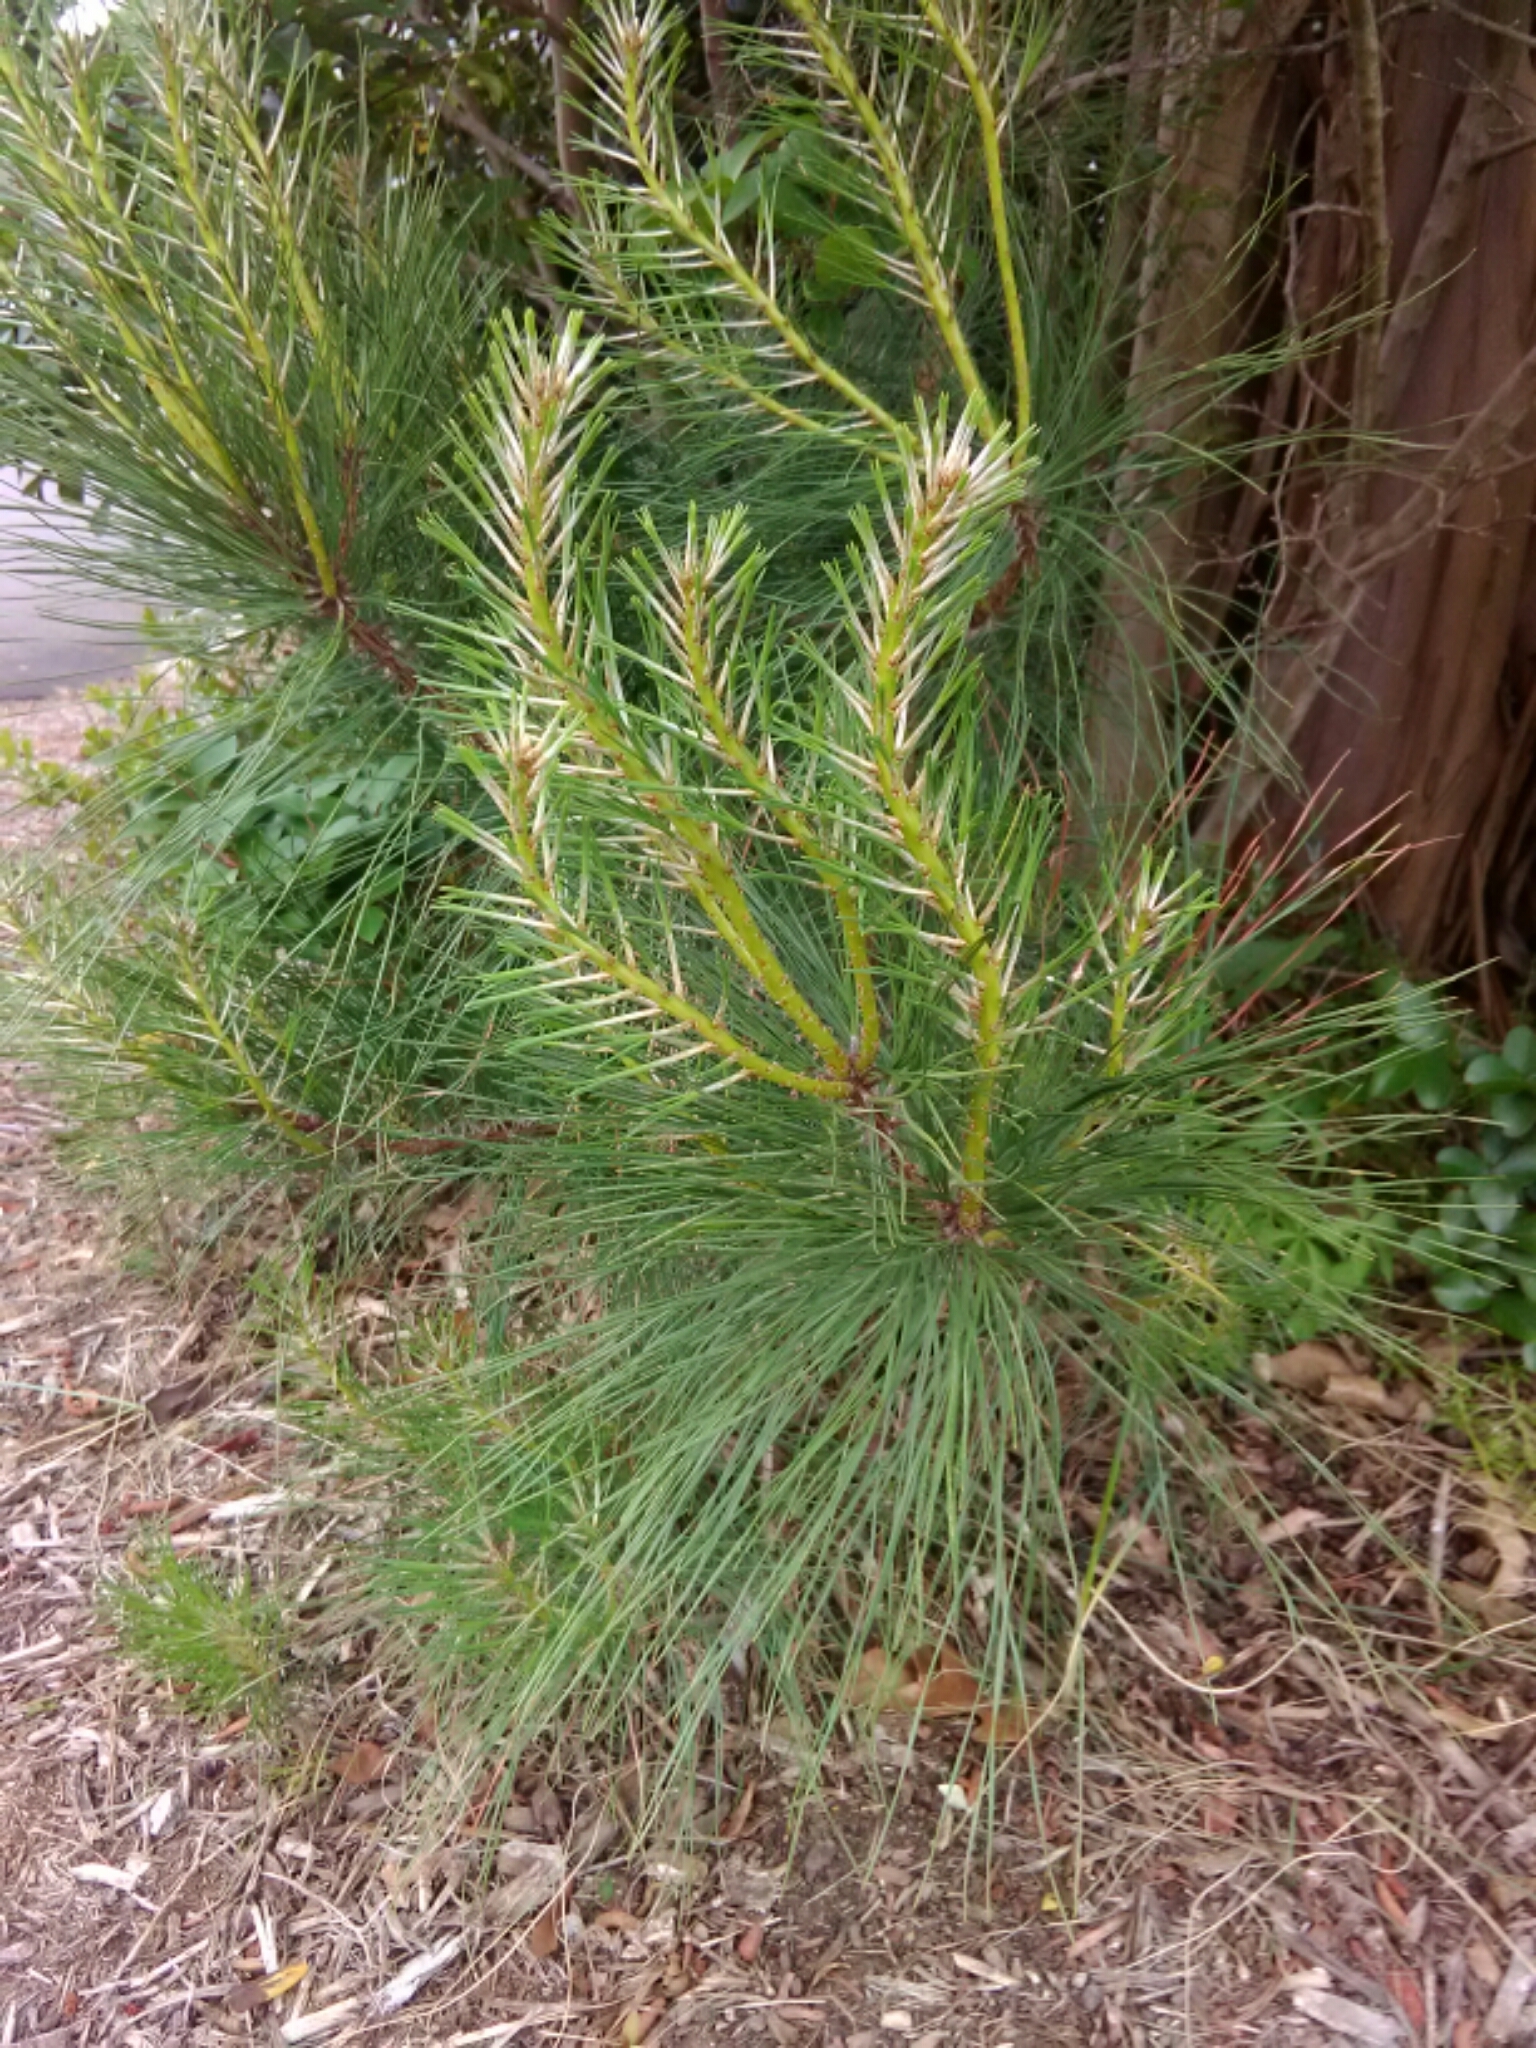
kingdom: Plantae
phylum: Tracheophyta
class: Pinopsida
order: Pinales
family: Pinaceae
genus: Pinus
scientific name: Pinus taeda
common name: Loblolly pine
